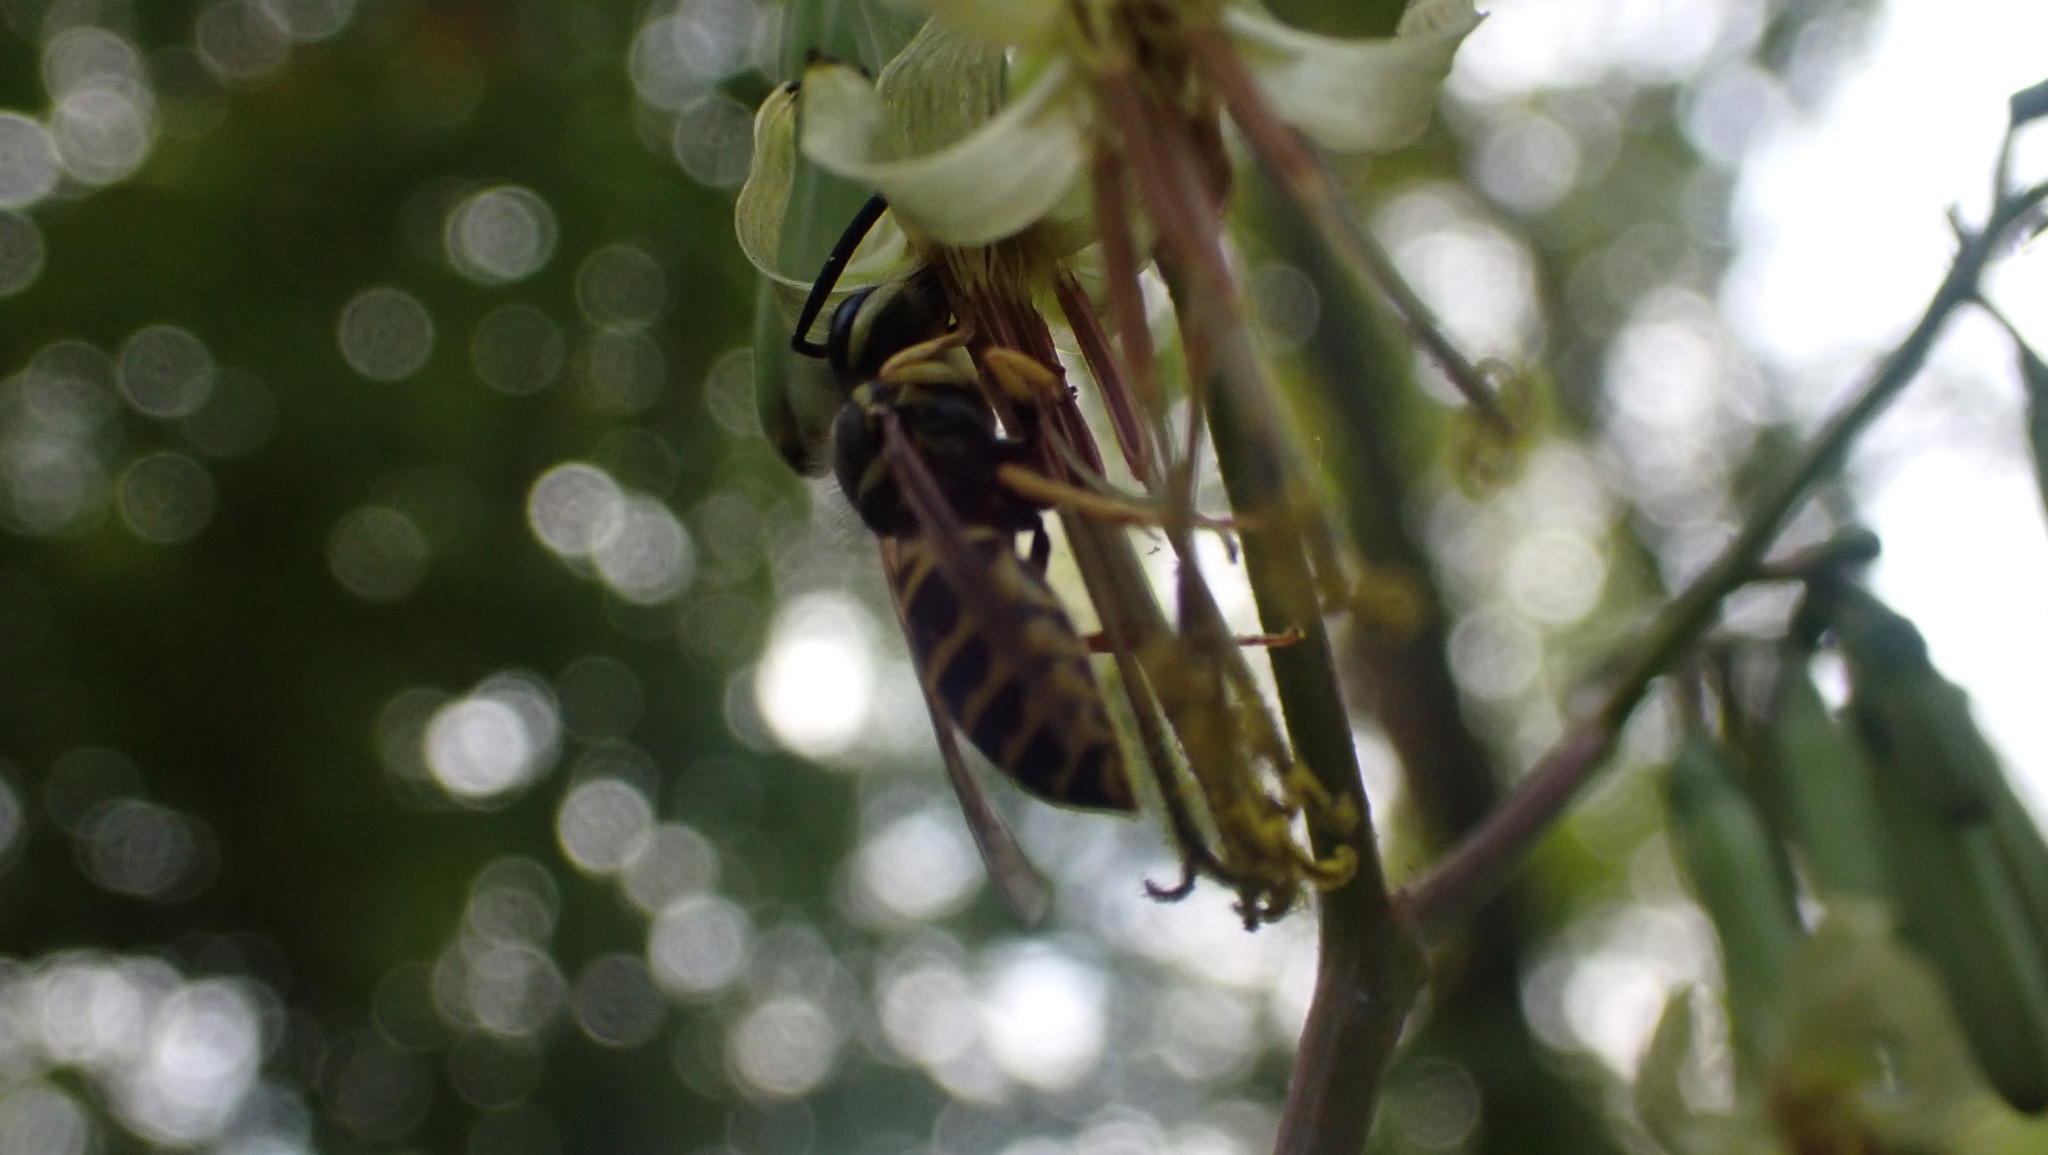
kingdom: Animalia
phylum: Arthropoda
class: Insecta
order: Hymenoptera
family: Vespidae
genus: Vespula
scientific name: Vespula maculifrons
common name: Eastern yellowjacket
